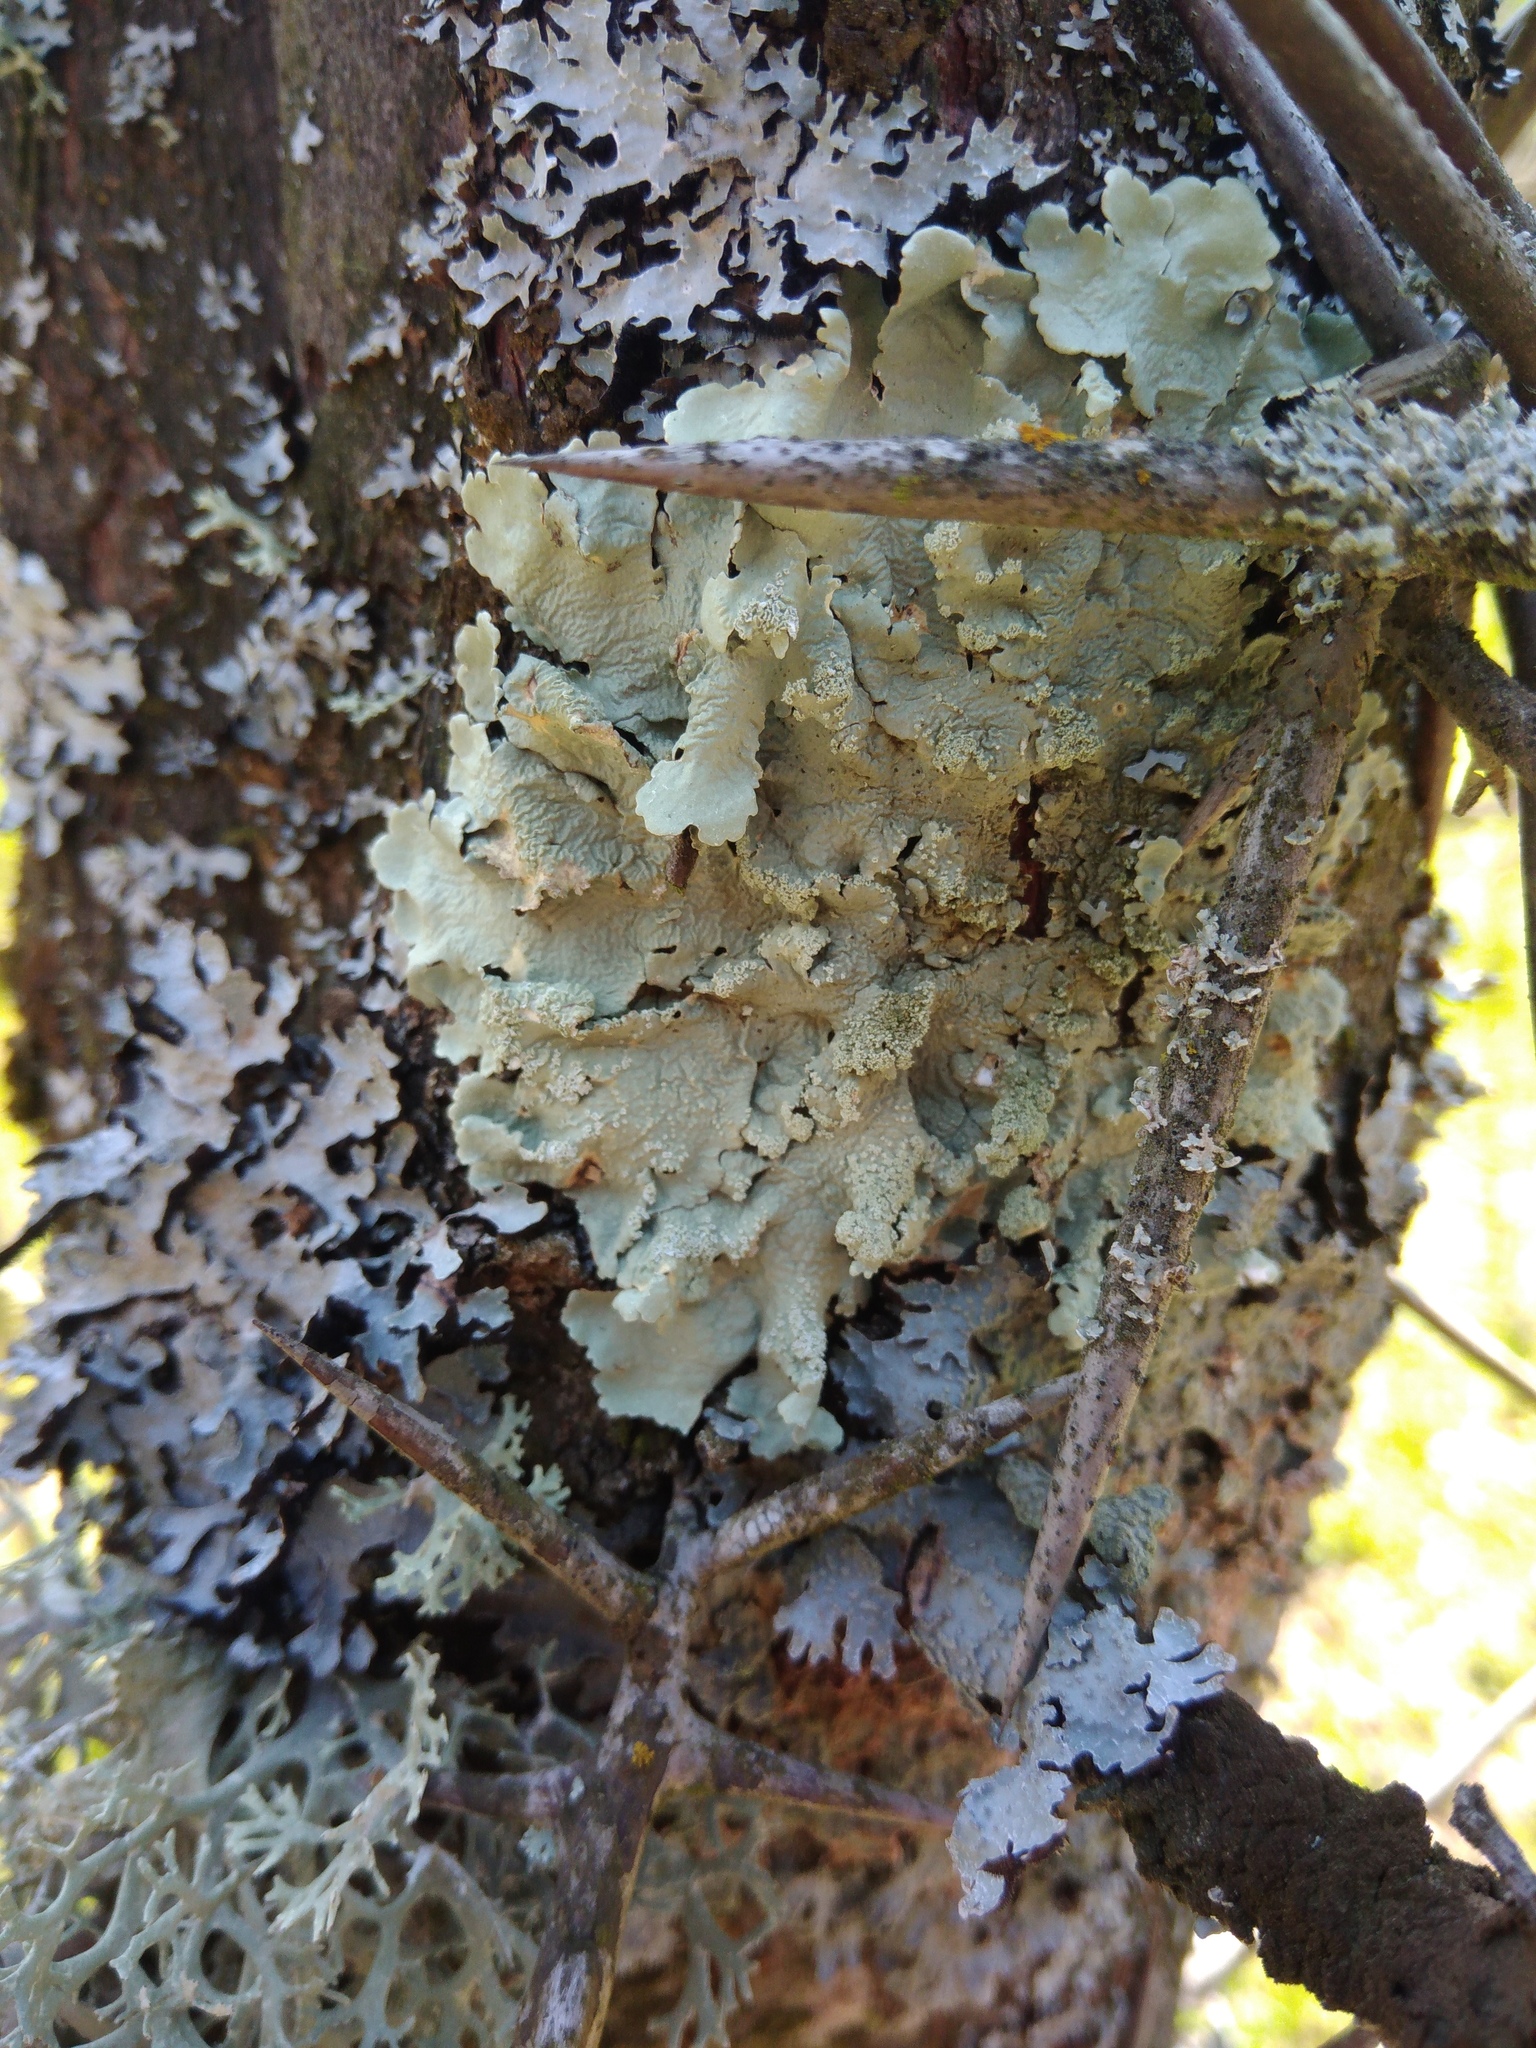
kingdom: Fungi
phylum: Ascomycota
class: Lecanoromycetes
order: Lecanorales
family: Parmeliaceae
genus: Flavoparmelia
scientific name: Flavoparmelia caperata
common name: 40-mile per hour lichen
